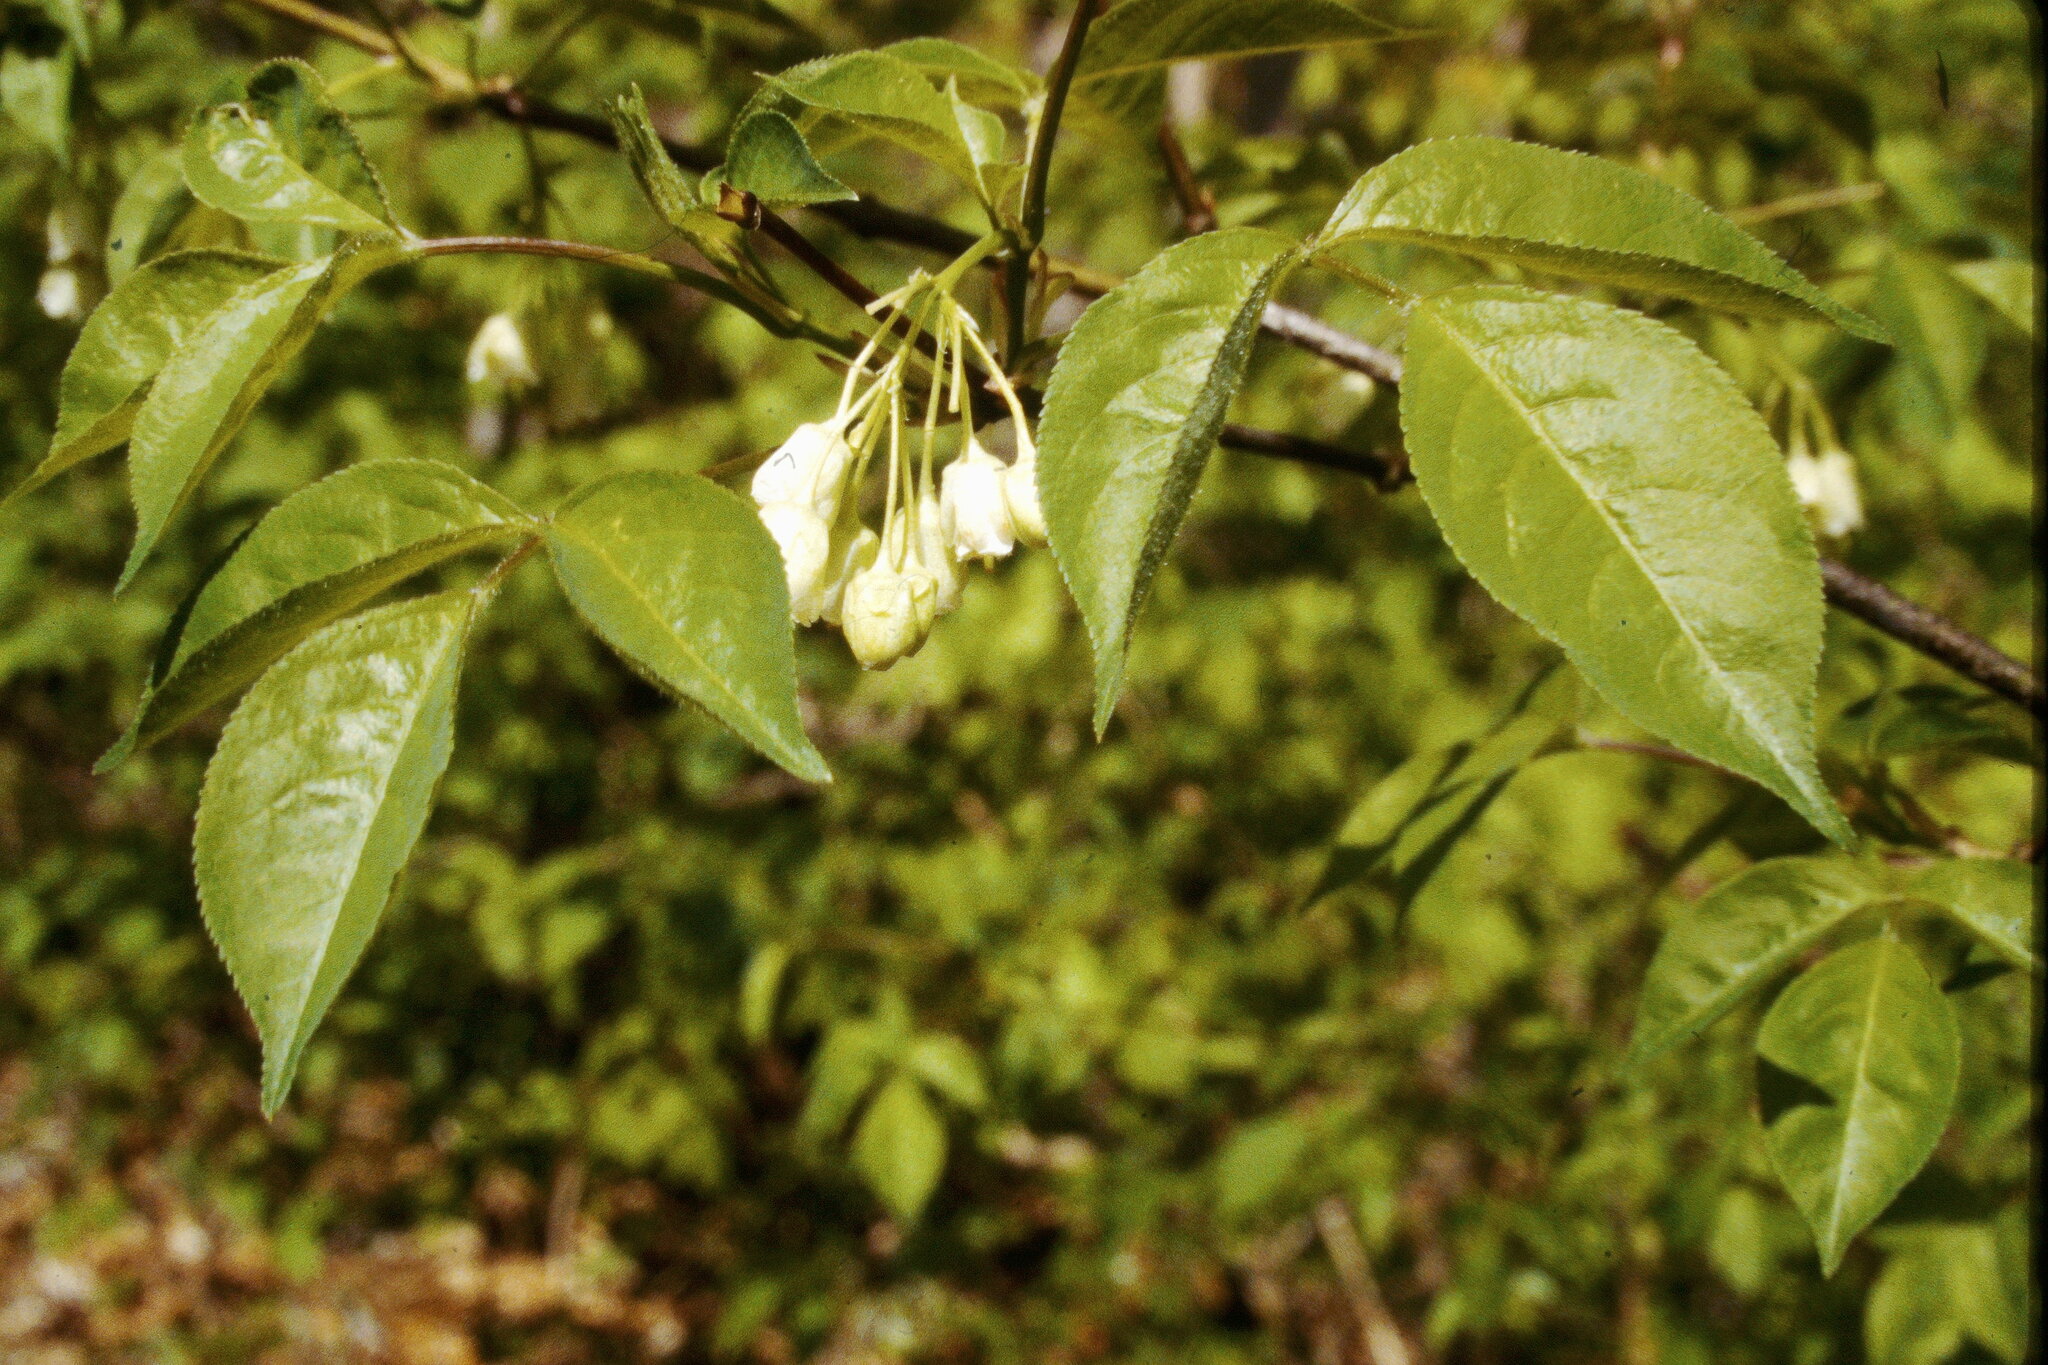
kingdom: Plantae
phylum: Tracheophyta
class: Magnoliopsida
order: Crossosomatales
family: Staphyleaceae
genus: Staphylea
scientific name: Staphylea trifolia
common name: American bladdernut
